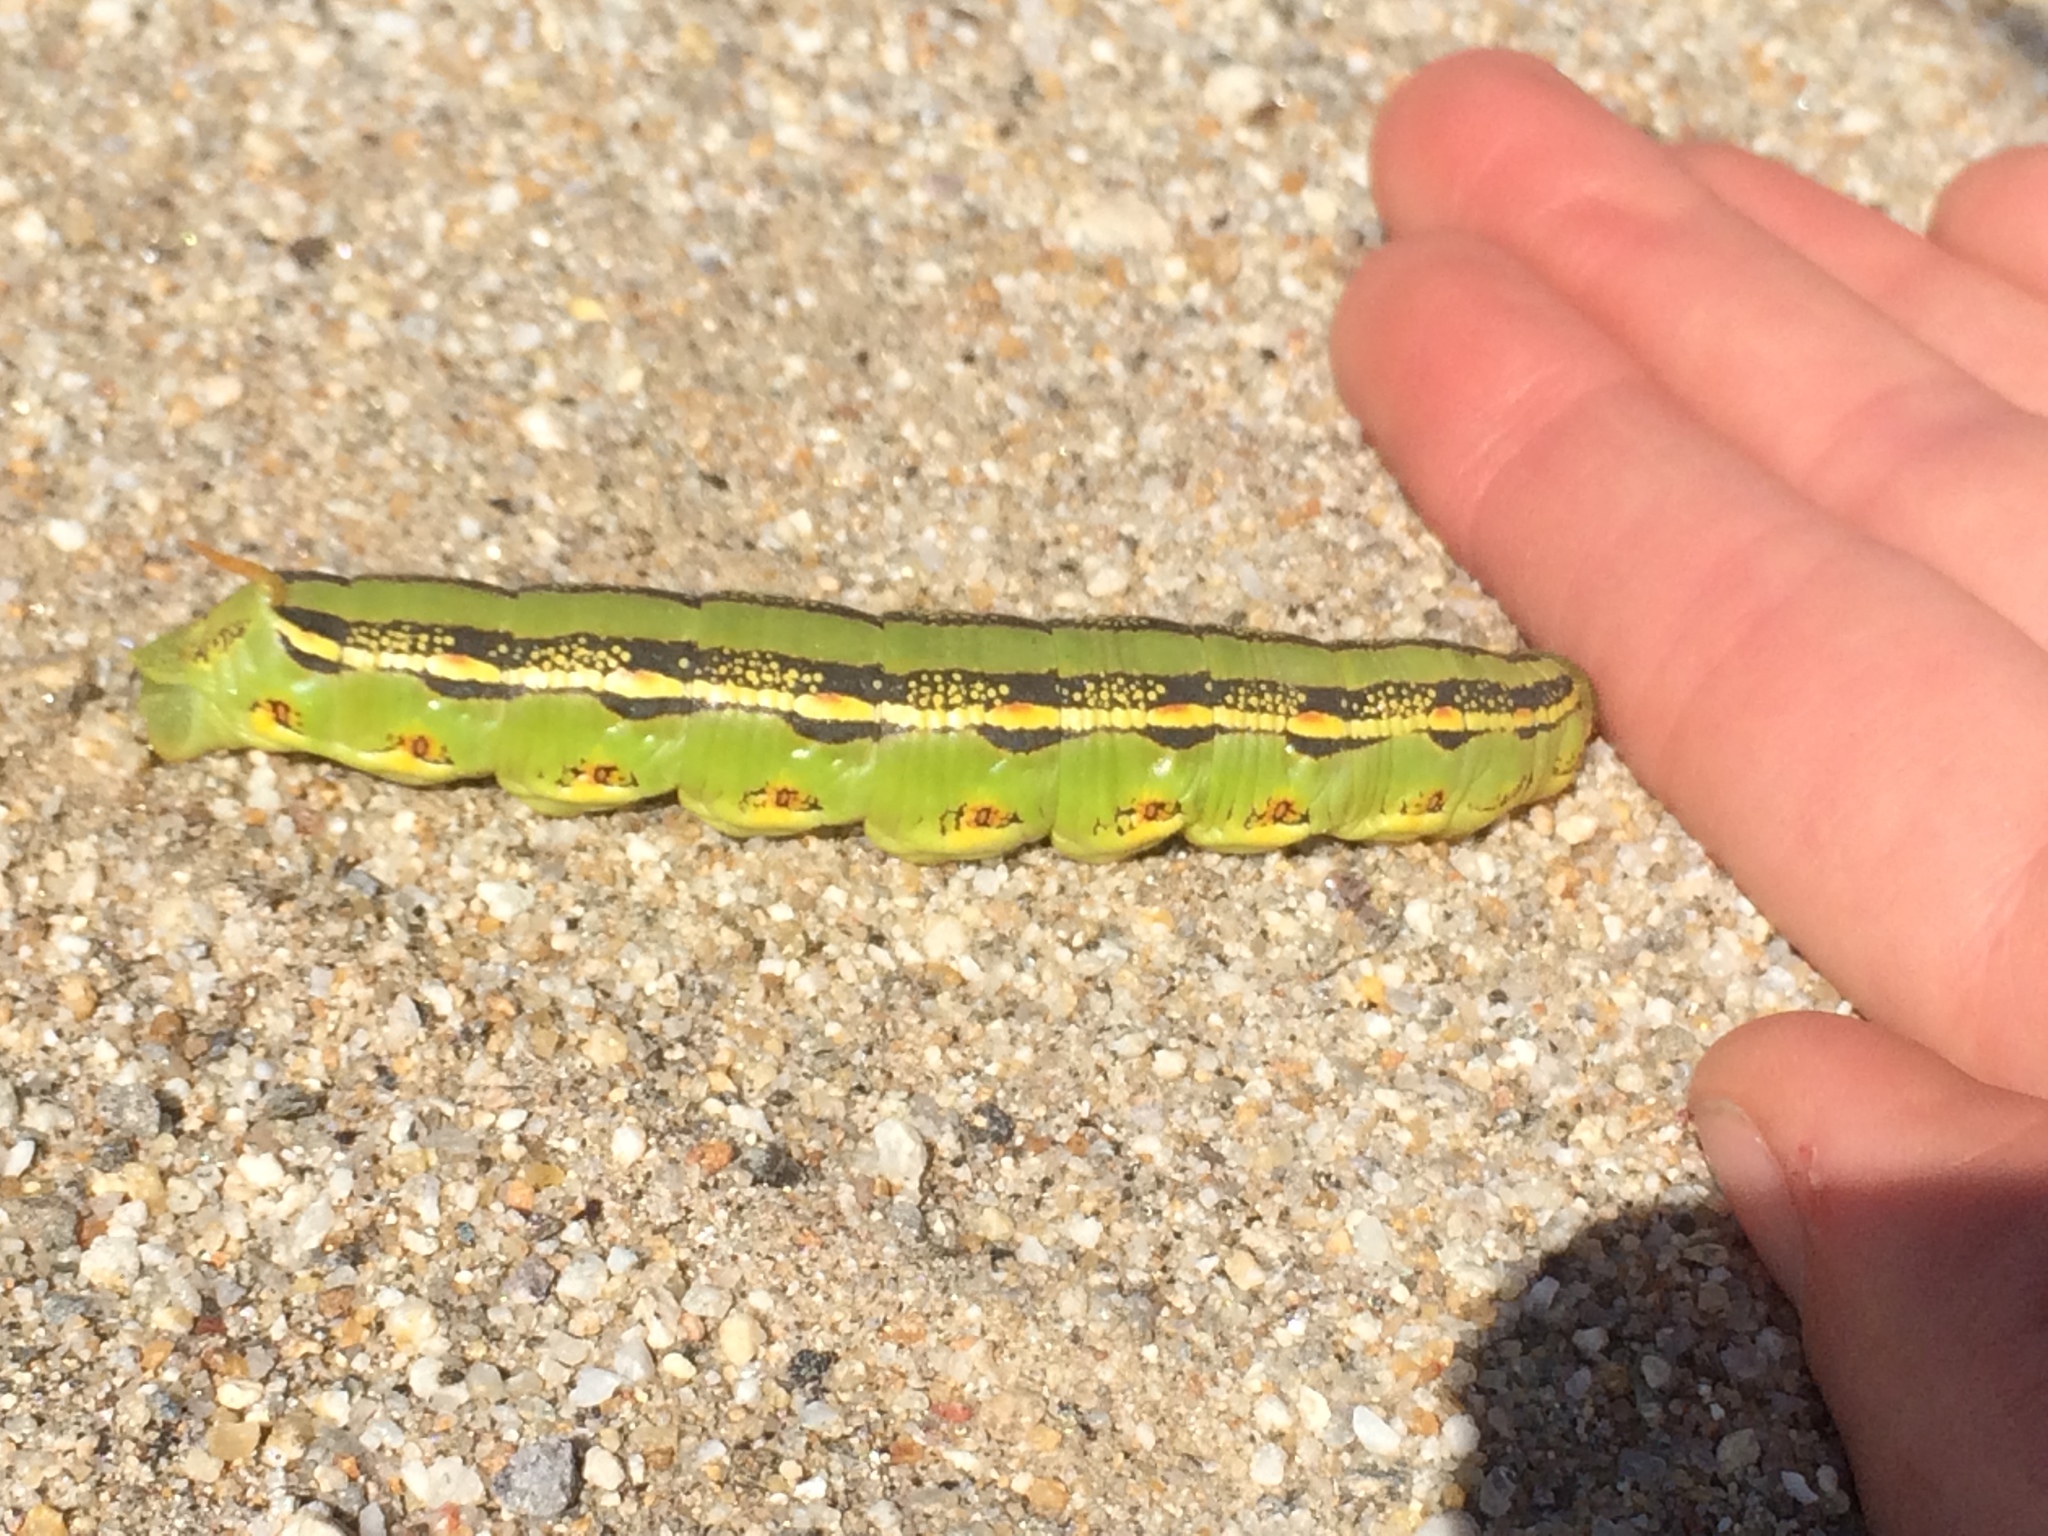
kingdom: Animalia
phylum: Arthropoda
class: Insecta
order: Lepidoptera
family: Sphingidae
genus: Hyles
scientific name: Hyles lineata
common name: White-lined sphinx
